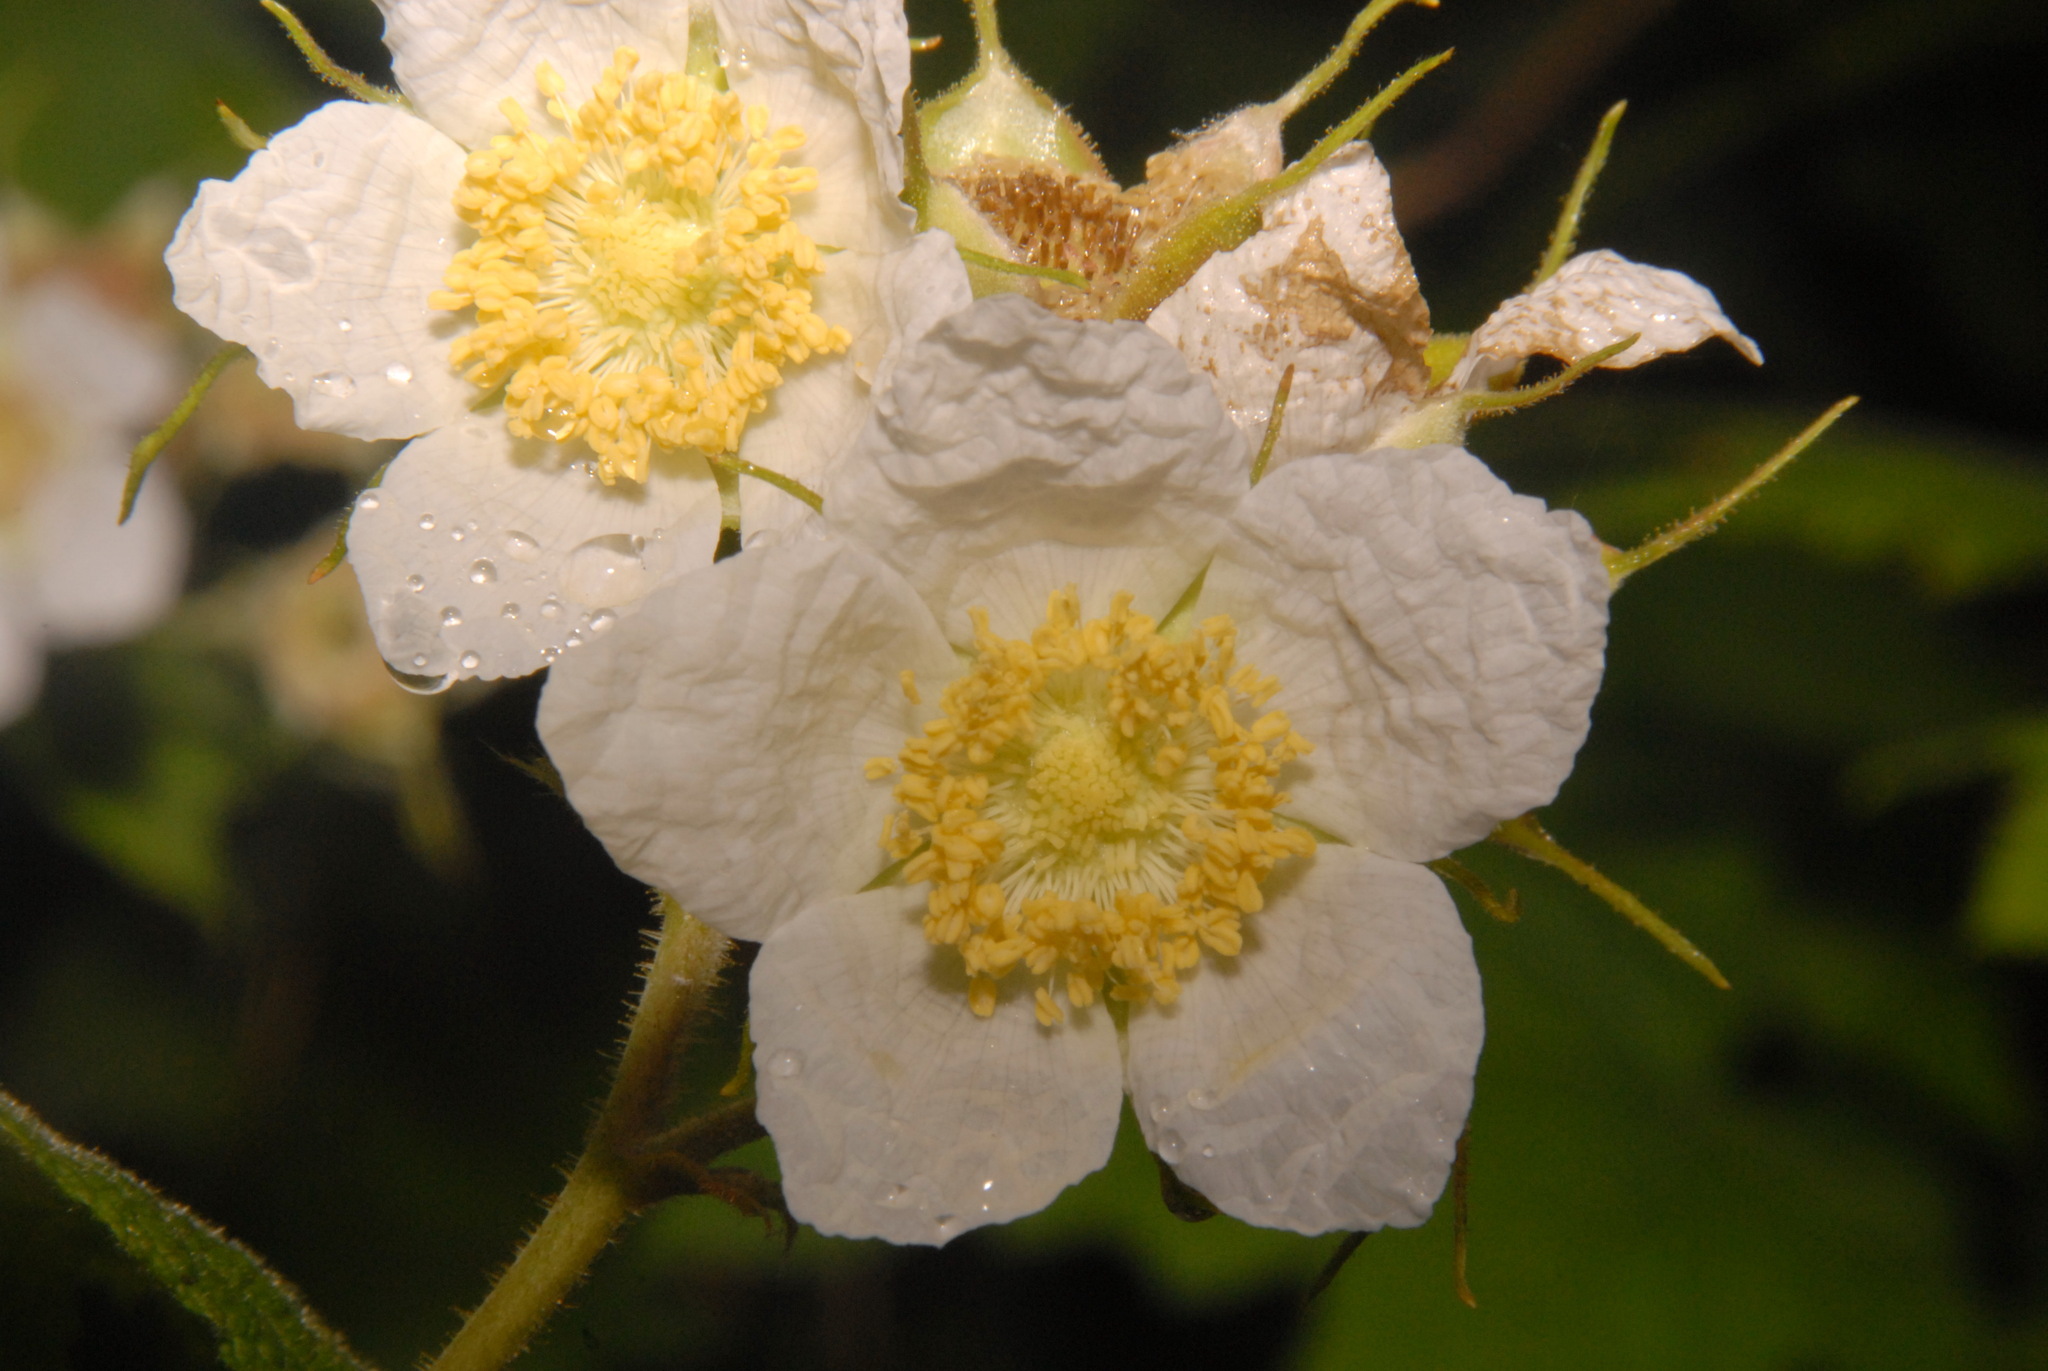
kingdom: Plantae
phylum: Tracheophyta
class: Magnoliopsida
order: Rosales
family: Rosaceae
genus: Rubus
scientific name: Rubus parviflorus
